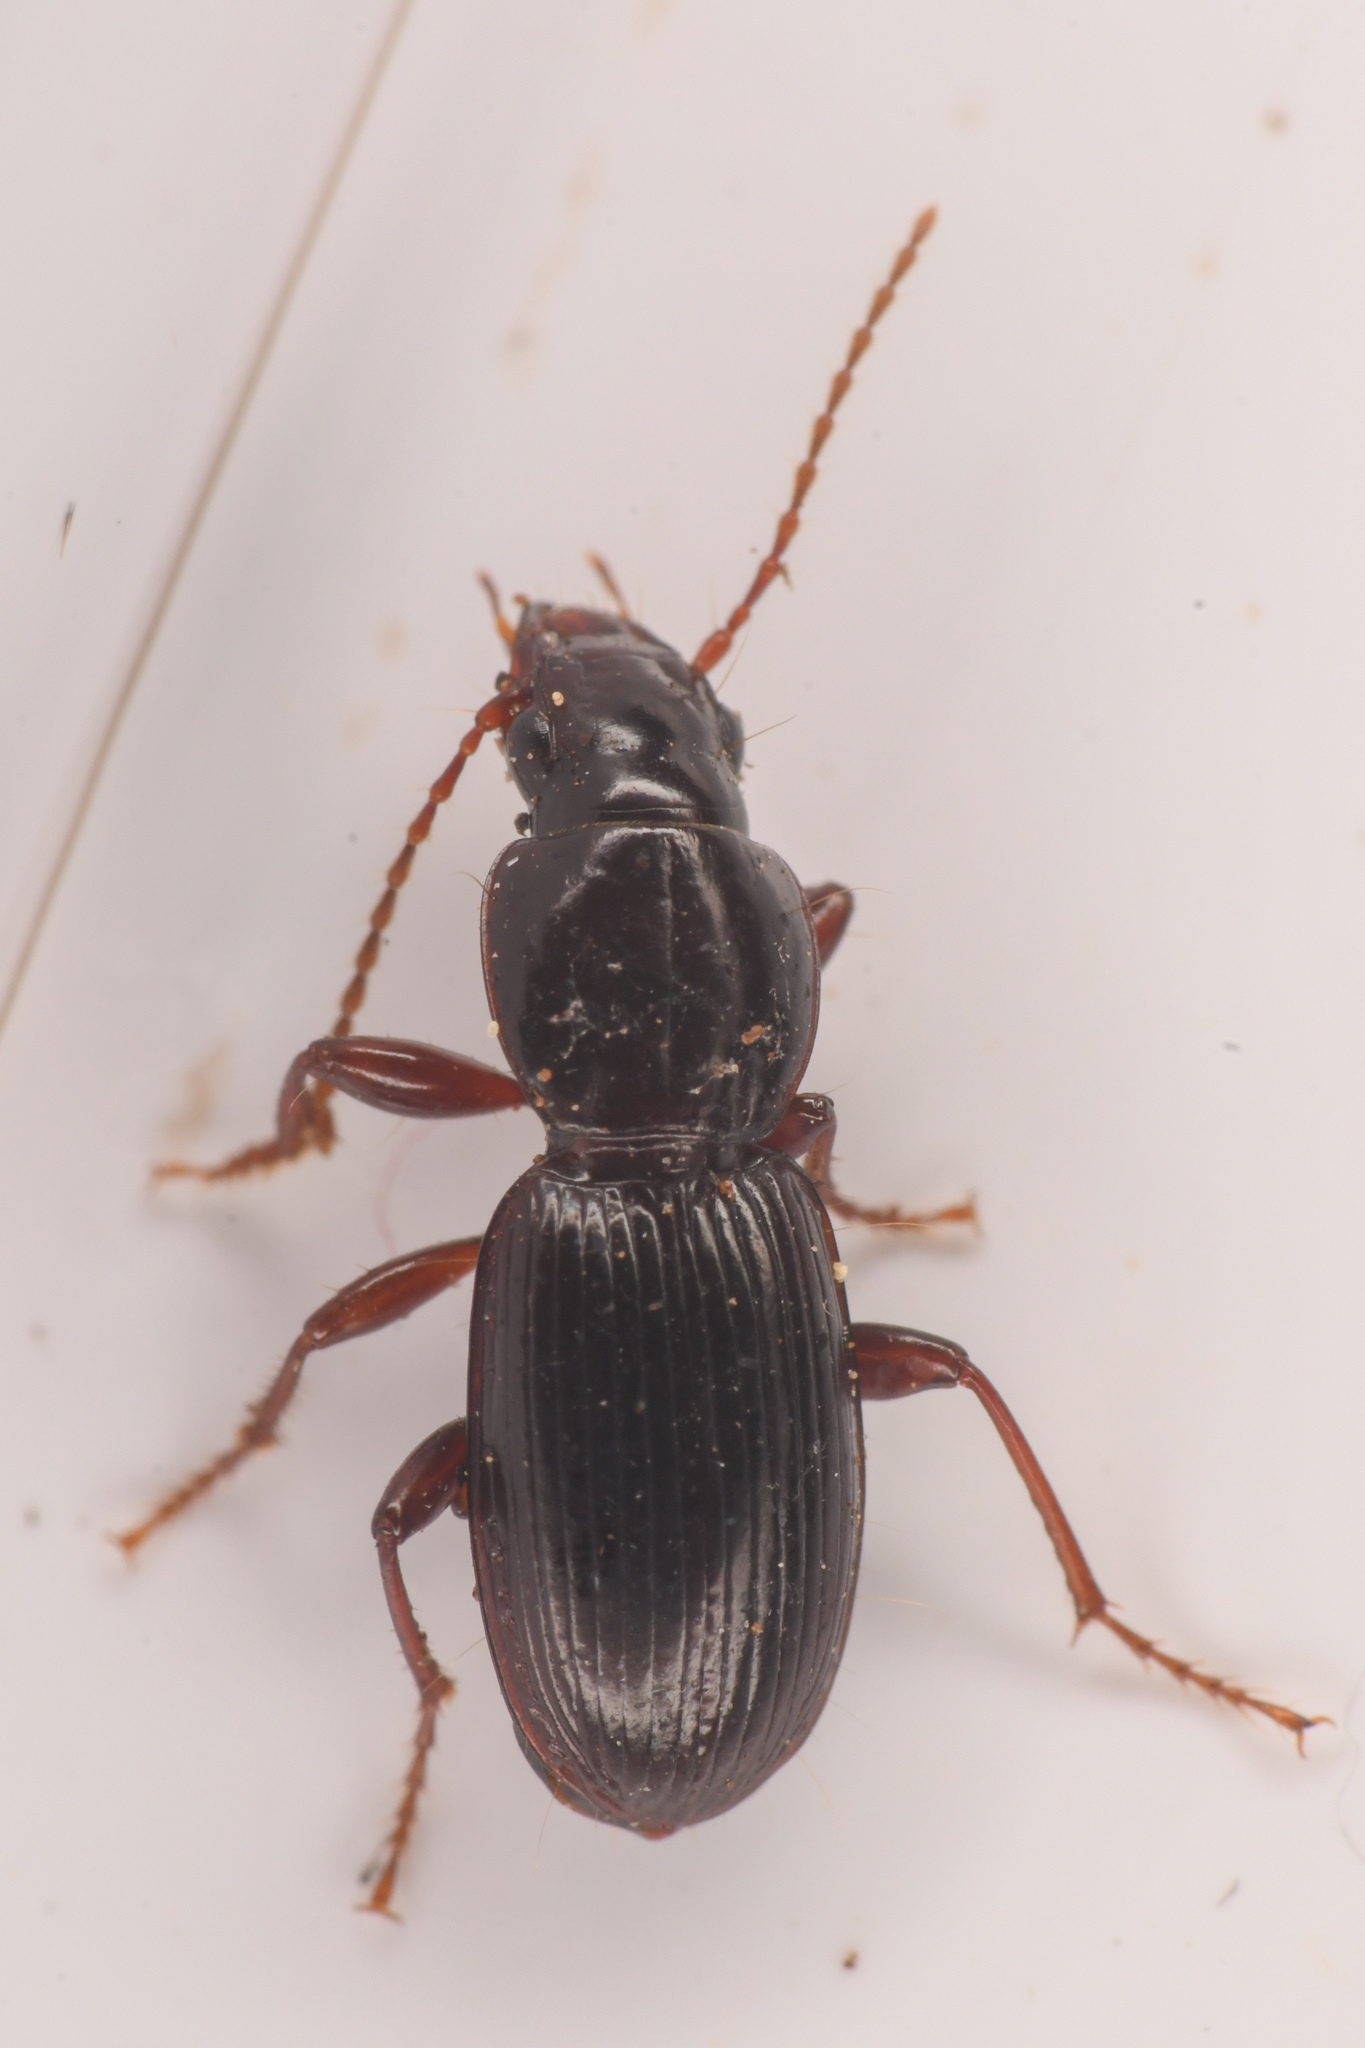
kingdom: Animalia
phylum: Arthropoda
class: Insecta
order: Coleoptera
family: Carabidae
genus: Pterostichus
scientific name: Pterostichus pumilus
